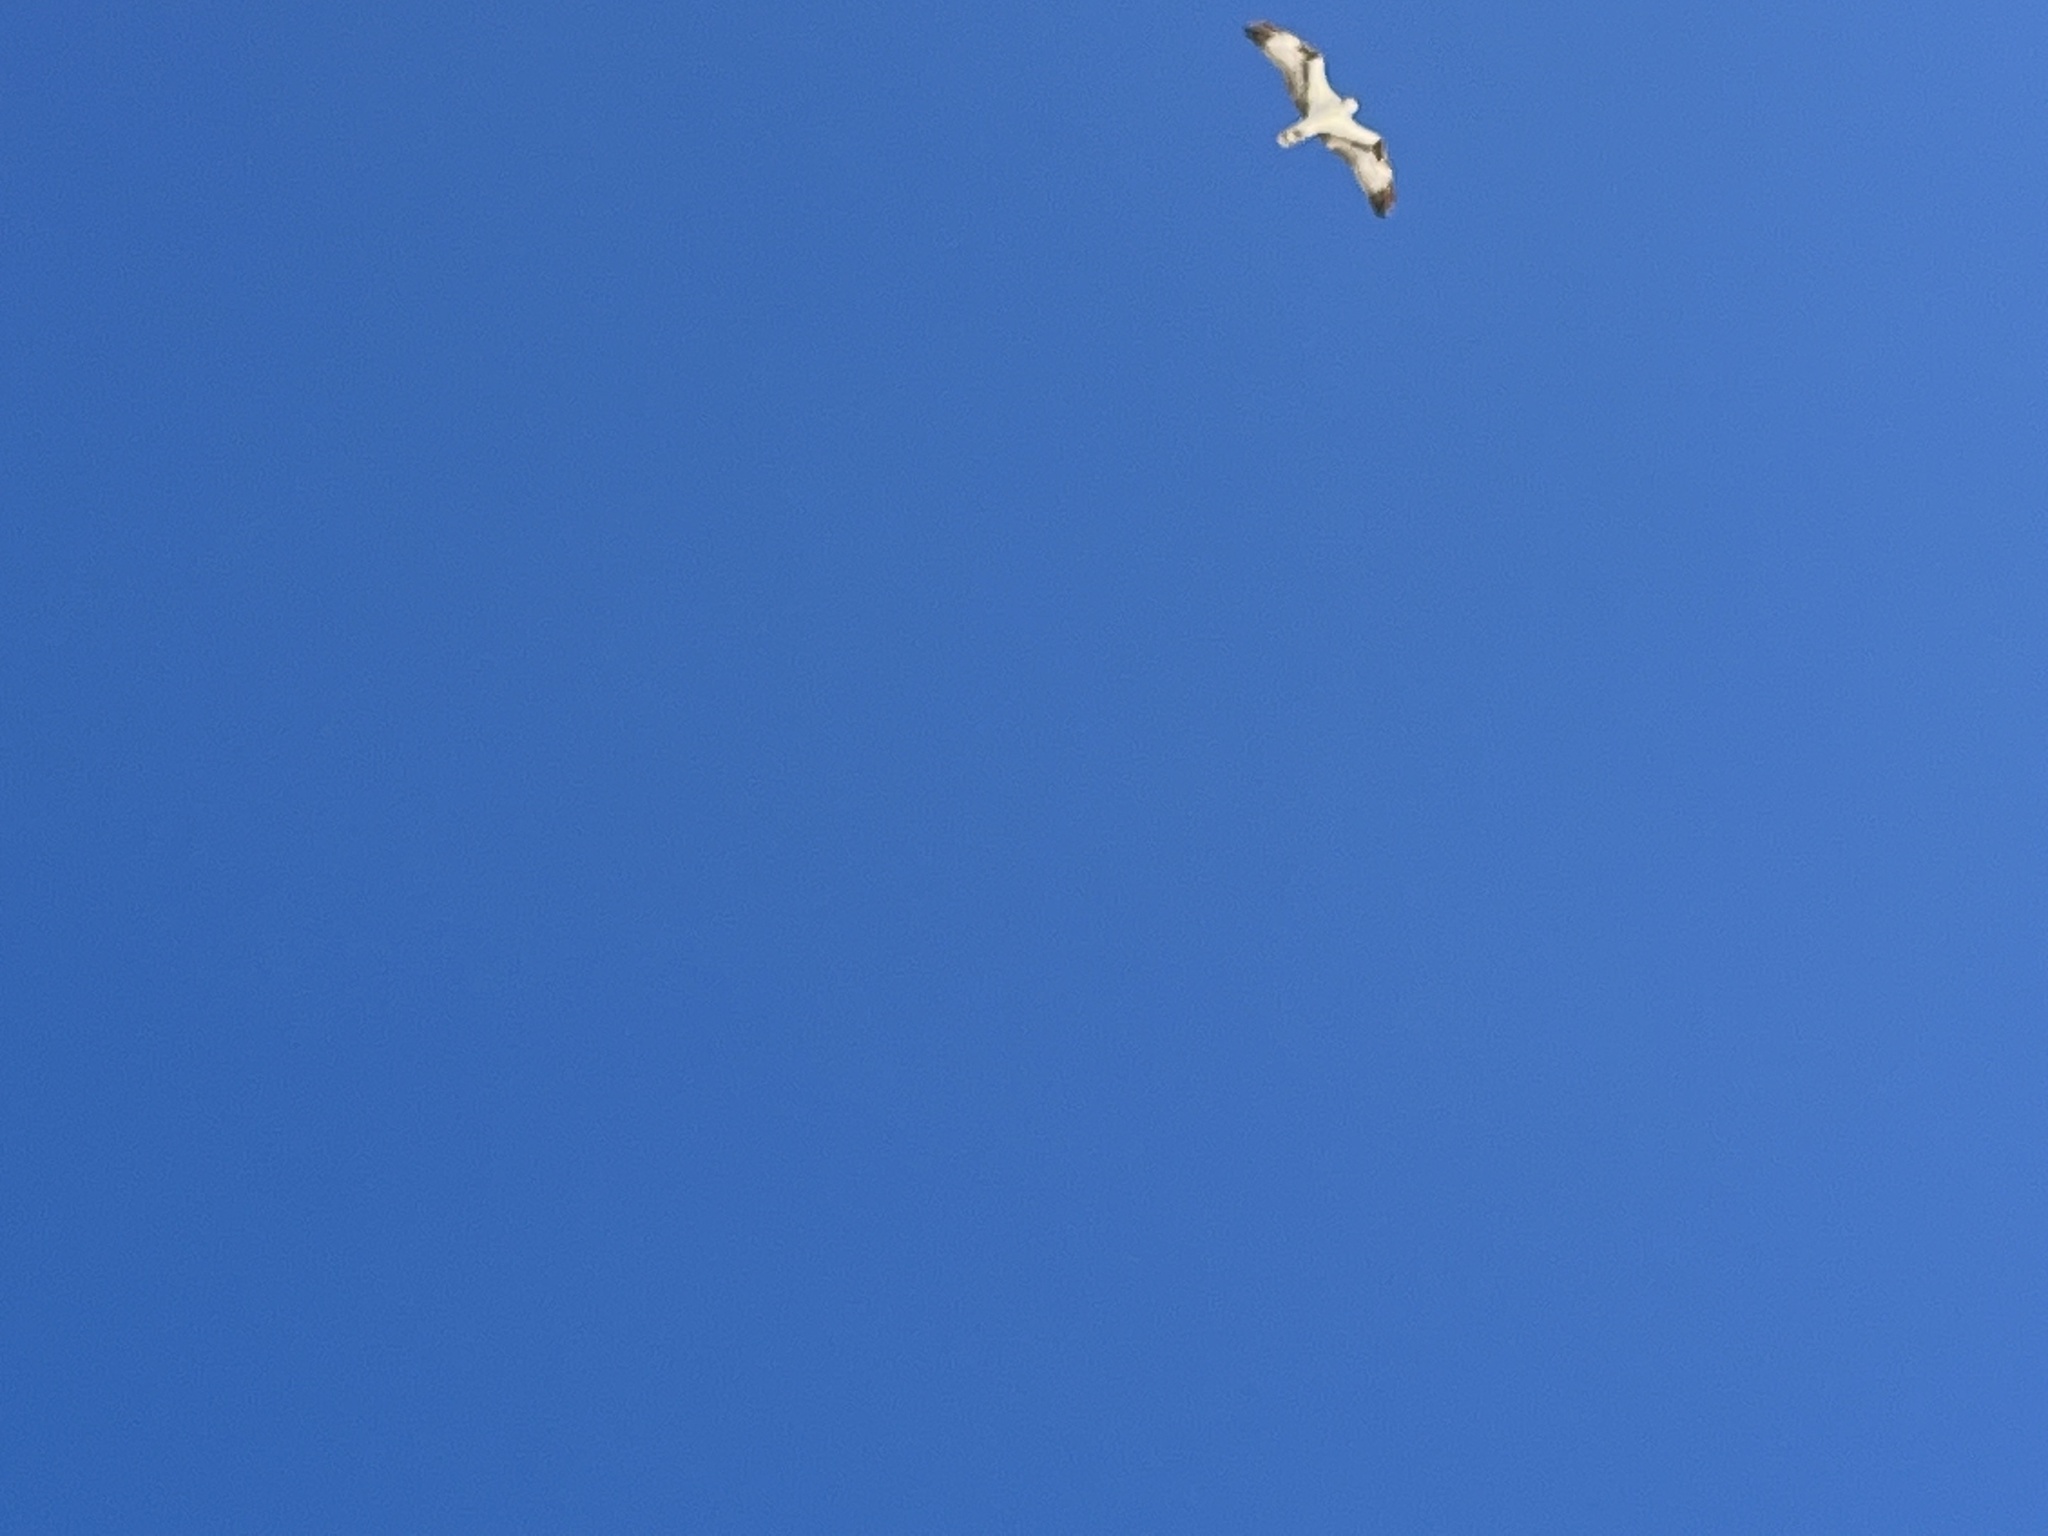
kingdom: Animalia
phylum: Chordata
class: Aves
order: Accipitriformes
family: Pandionidae
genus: Pandion
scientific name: Pandion haliaetus
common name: Osprey
